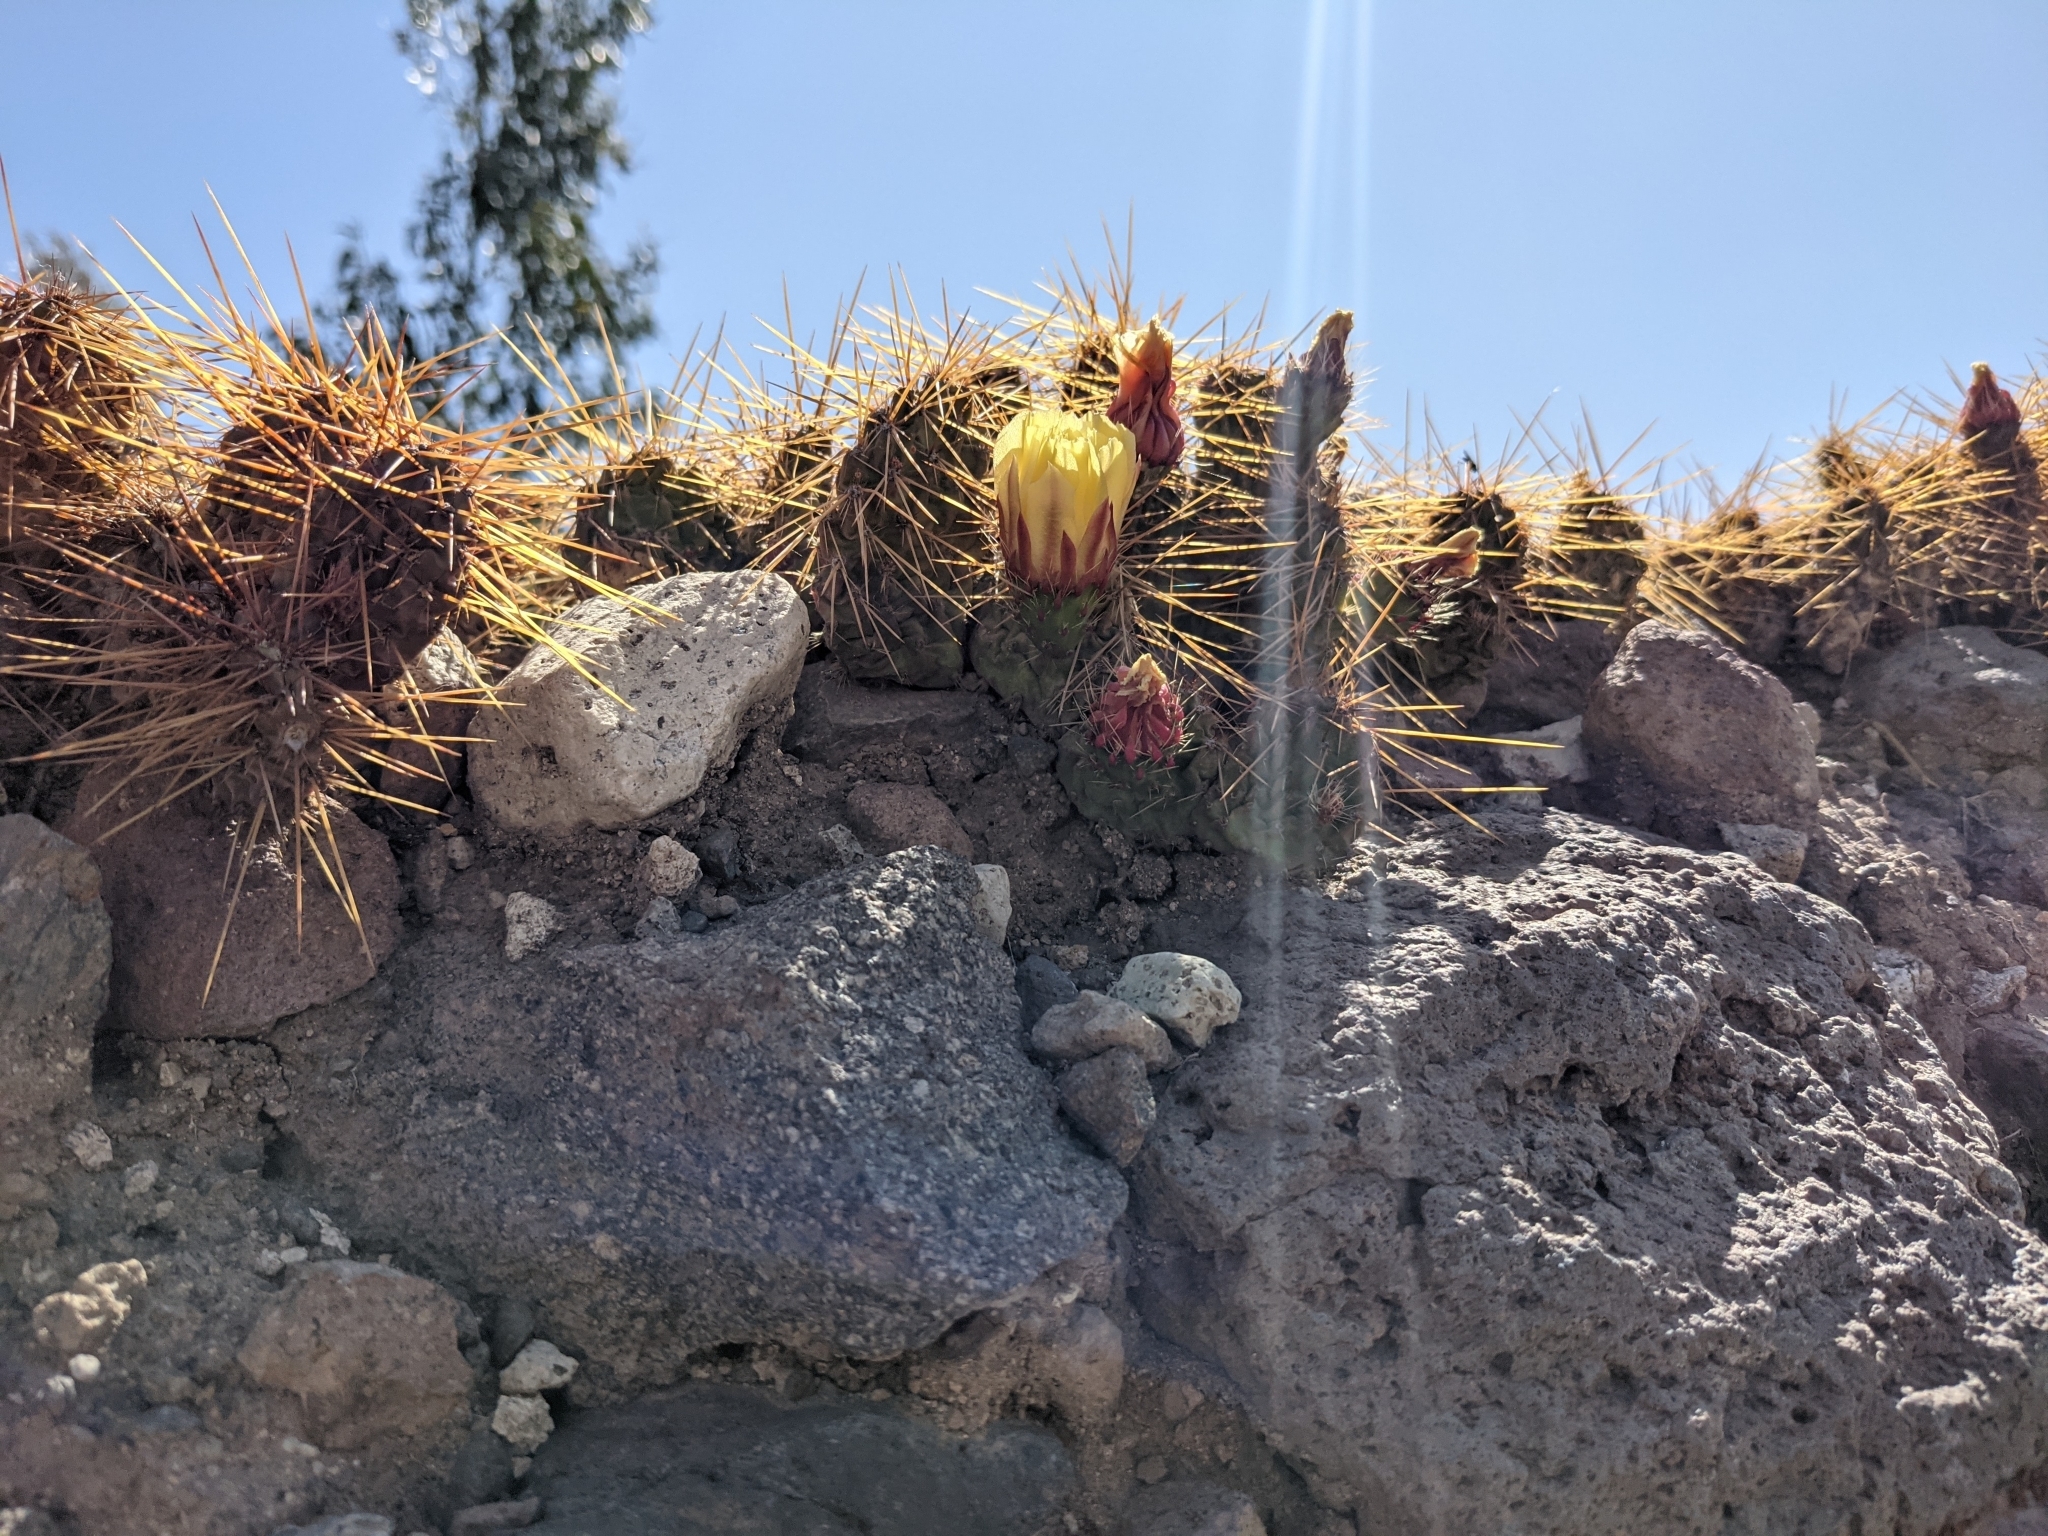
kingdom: Plantae
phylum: Tracheophyta
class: Magnoliopsida
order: Caryophyllales
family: Cactaceae
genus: Airampoa
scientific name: Airampoa soehrensii
